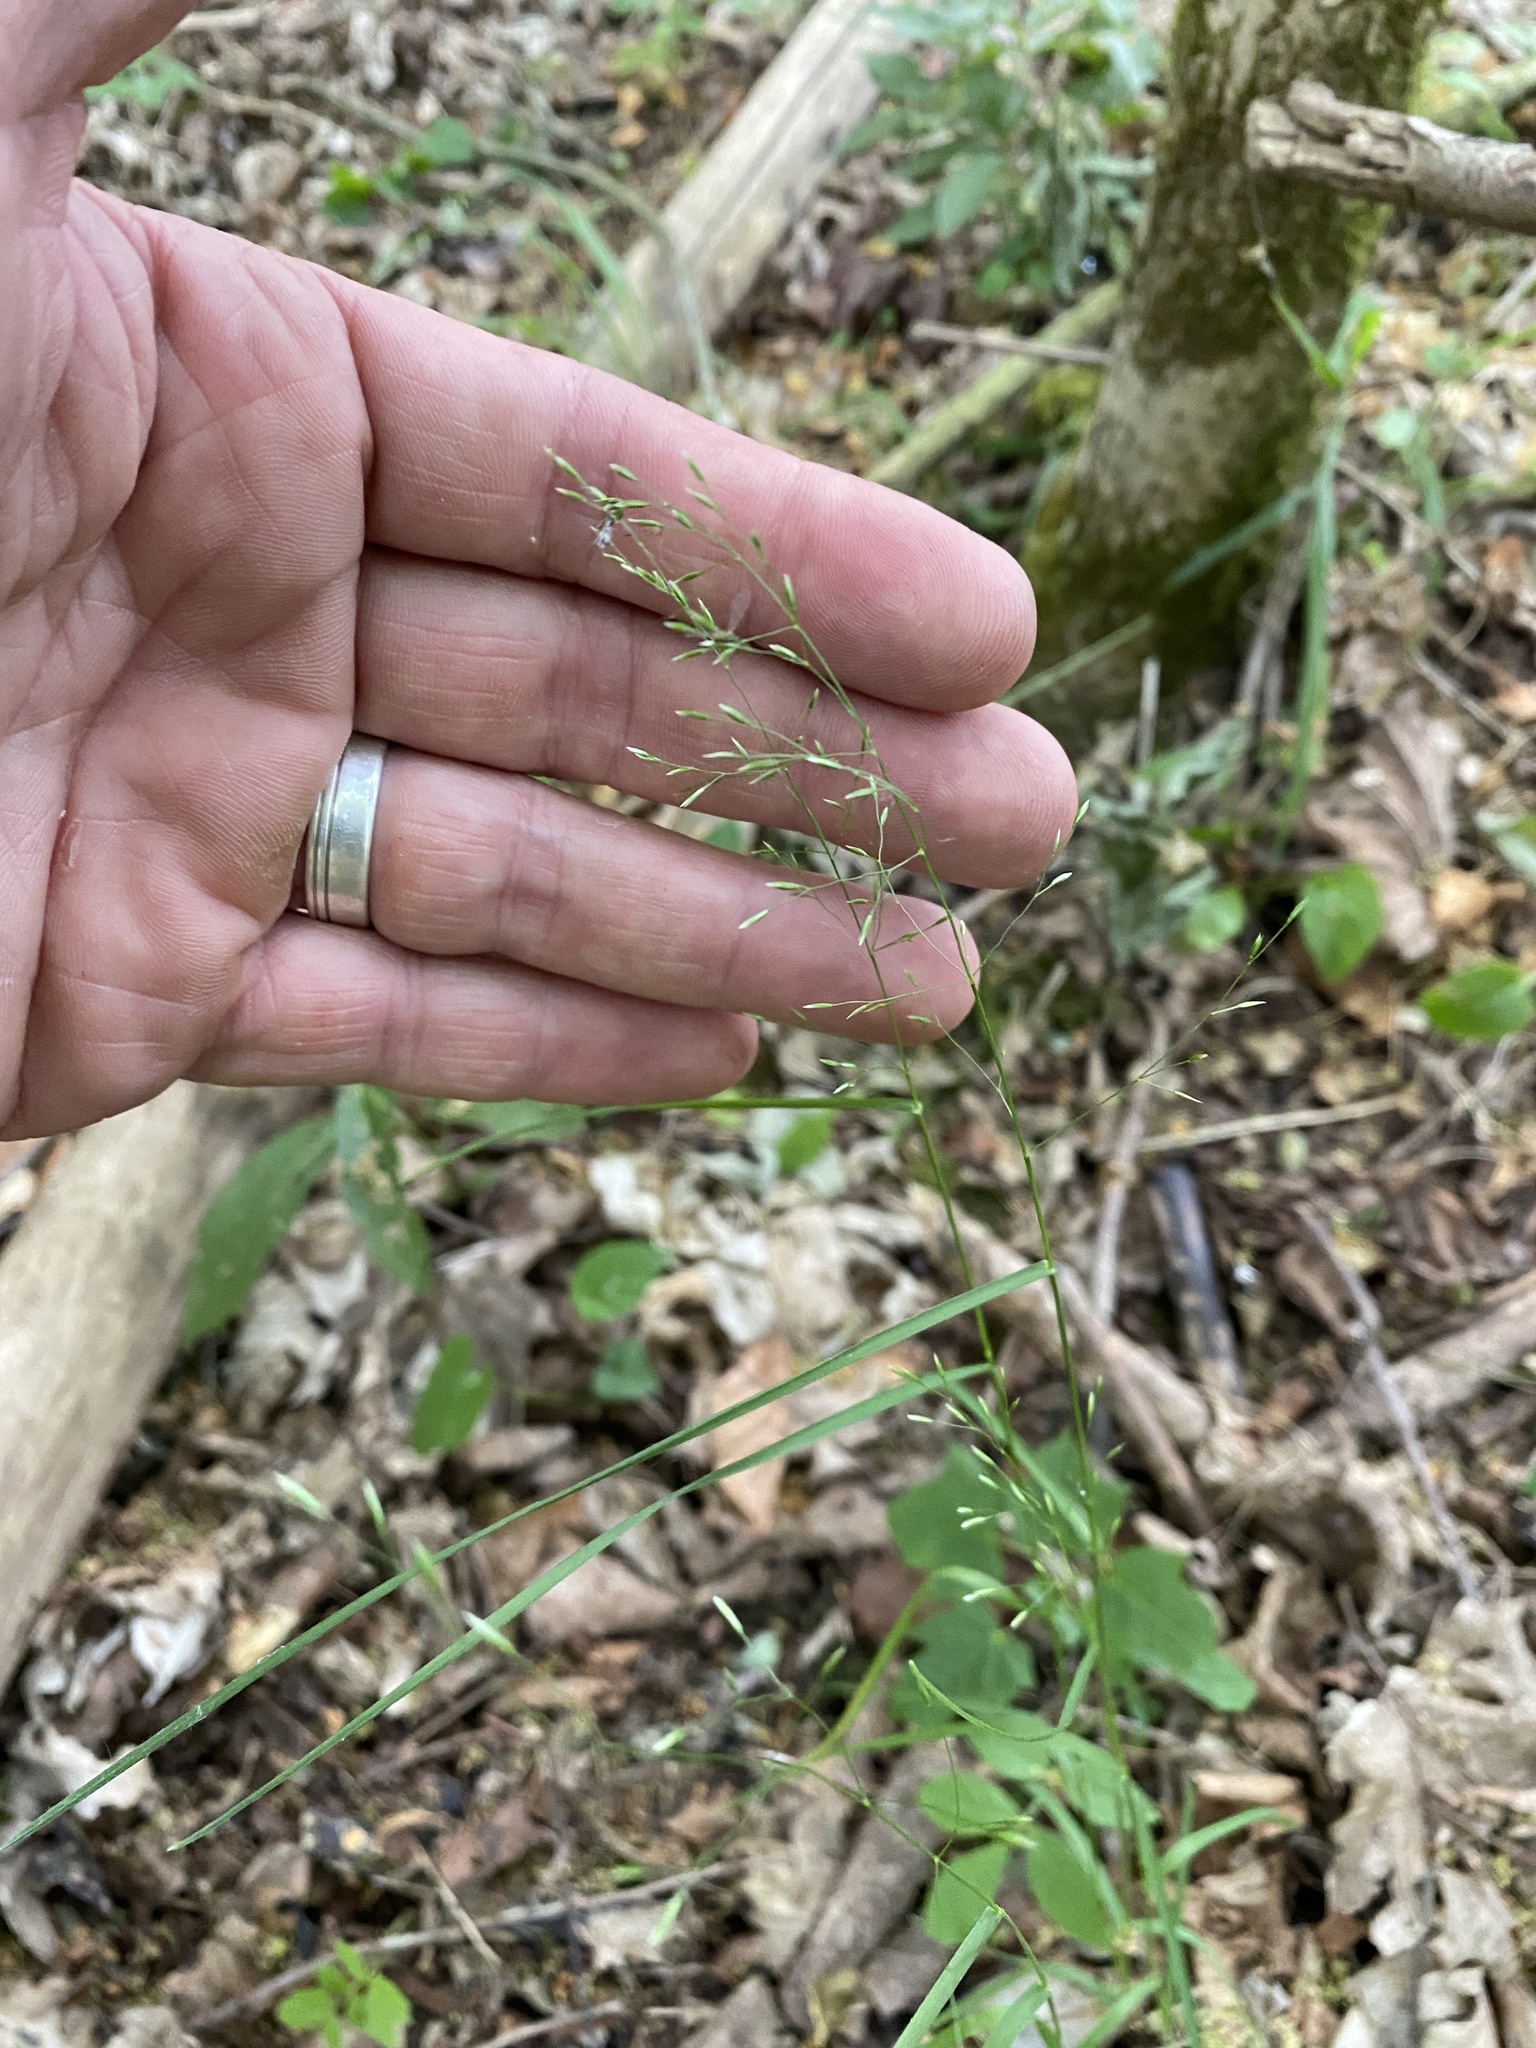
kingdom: Plantae
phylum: Tracheophyta
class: Liliopsida
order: Poales
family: Poaceae
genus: Poa
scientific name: Poa nemoralis
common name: Wood bluegrass
